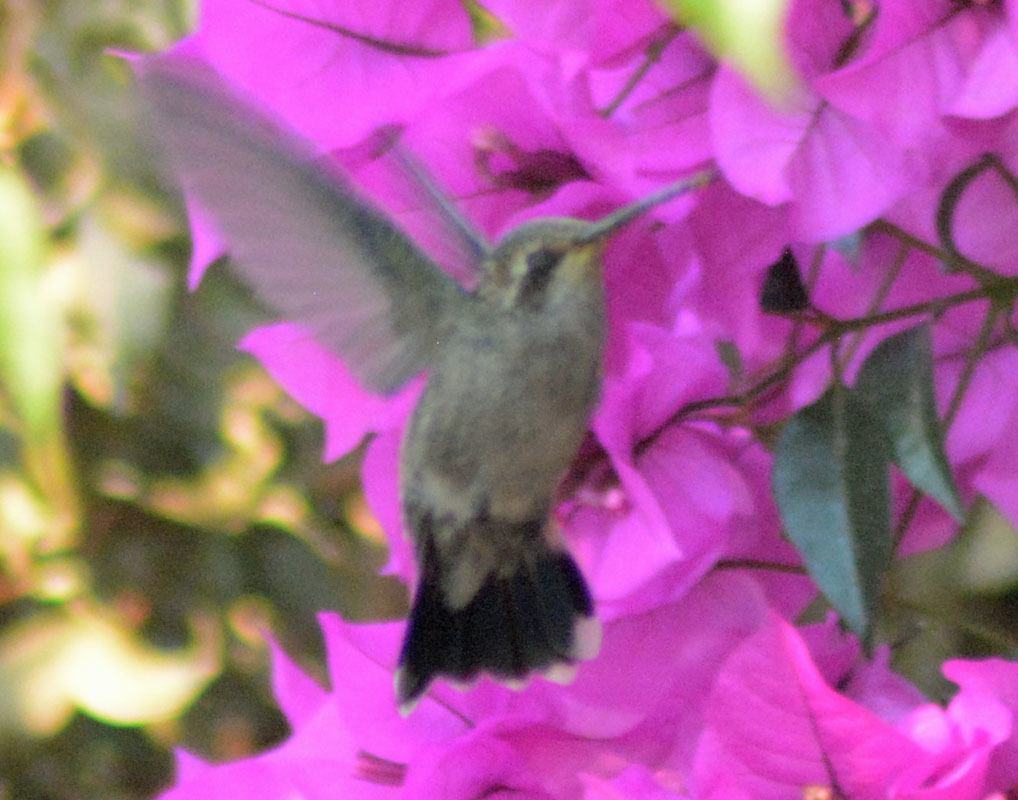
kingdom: Animalia
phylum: Chordata
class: Aves
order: Apodiformes
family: Trochilidae
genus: Cynanthus
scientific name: Cynanthus latirostris
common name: Broad-billed hummingbird
